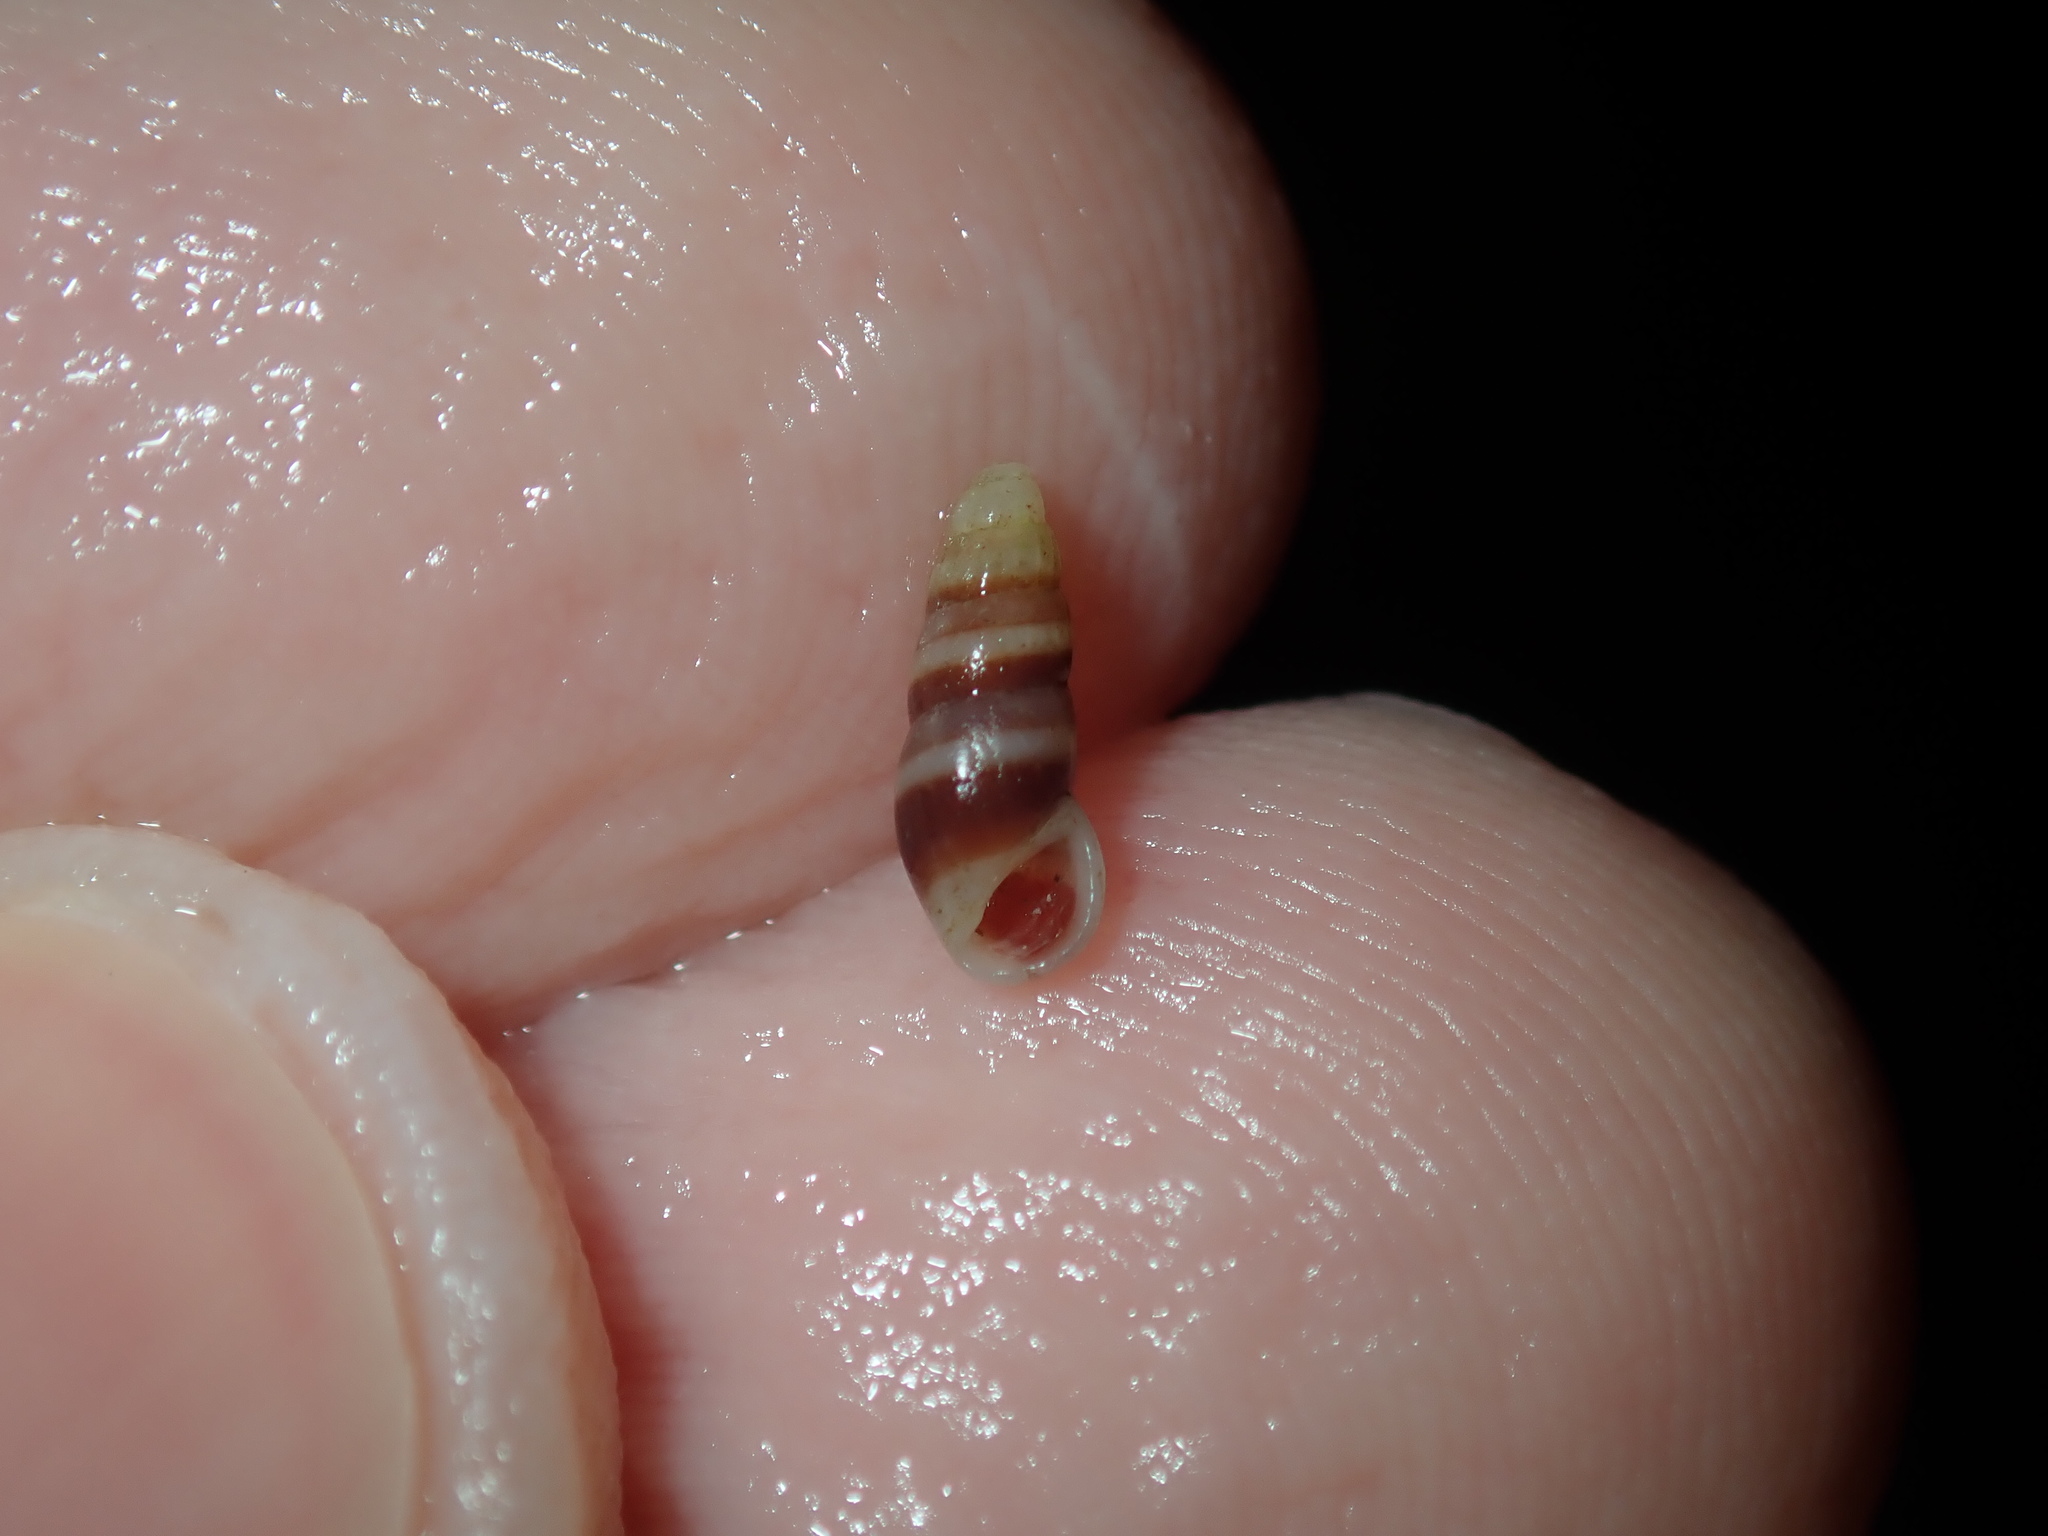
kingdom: Animalia
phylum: Mollusca
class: Gastropoda
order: Littorinimorpha
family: Rissoinidae
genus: Rissoina
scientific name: Rissoina fasciata
